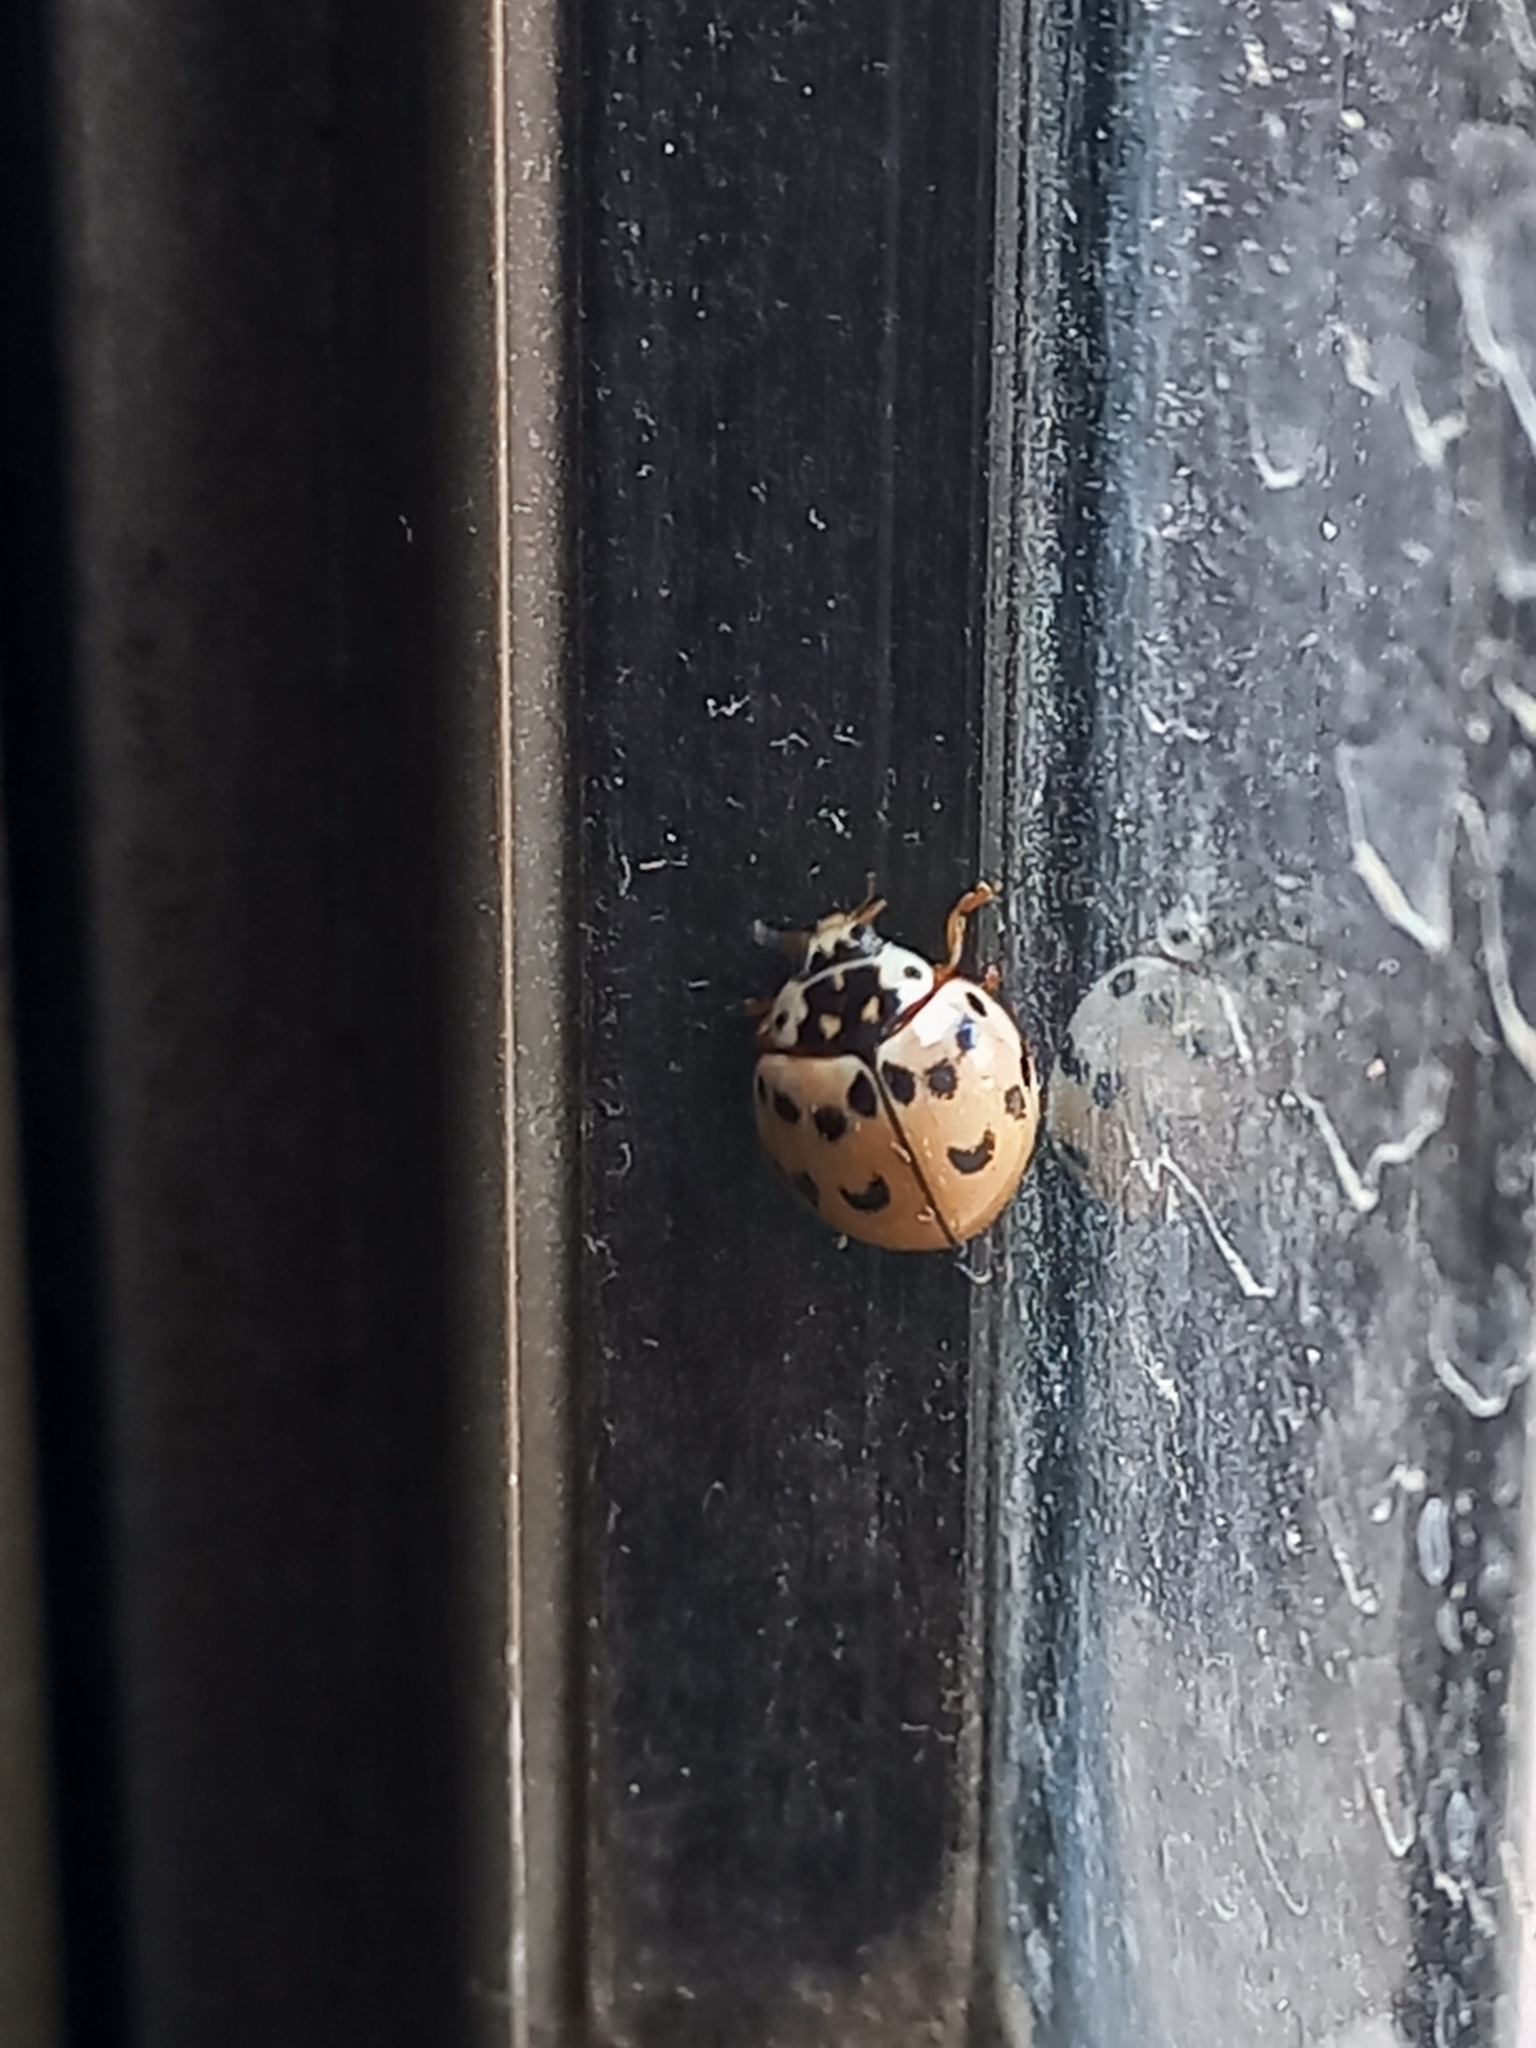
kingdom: Animalia
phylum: Arthropoda
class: Insecta
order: Coleoptera
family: Coccinellidae
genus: Olla
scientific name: Olla v-nigrum
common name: Ashy gray lady beetle
